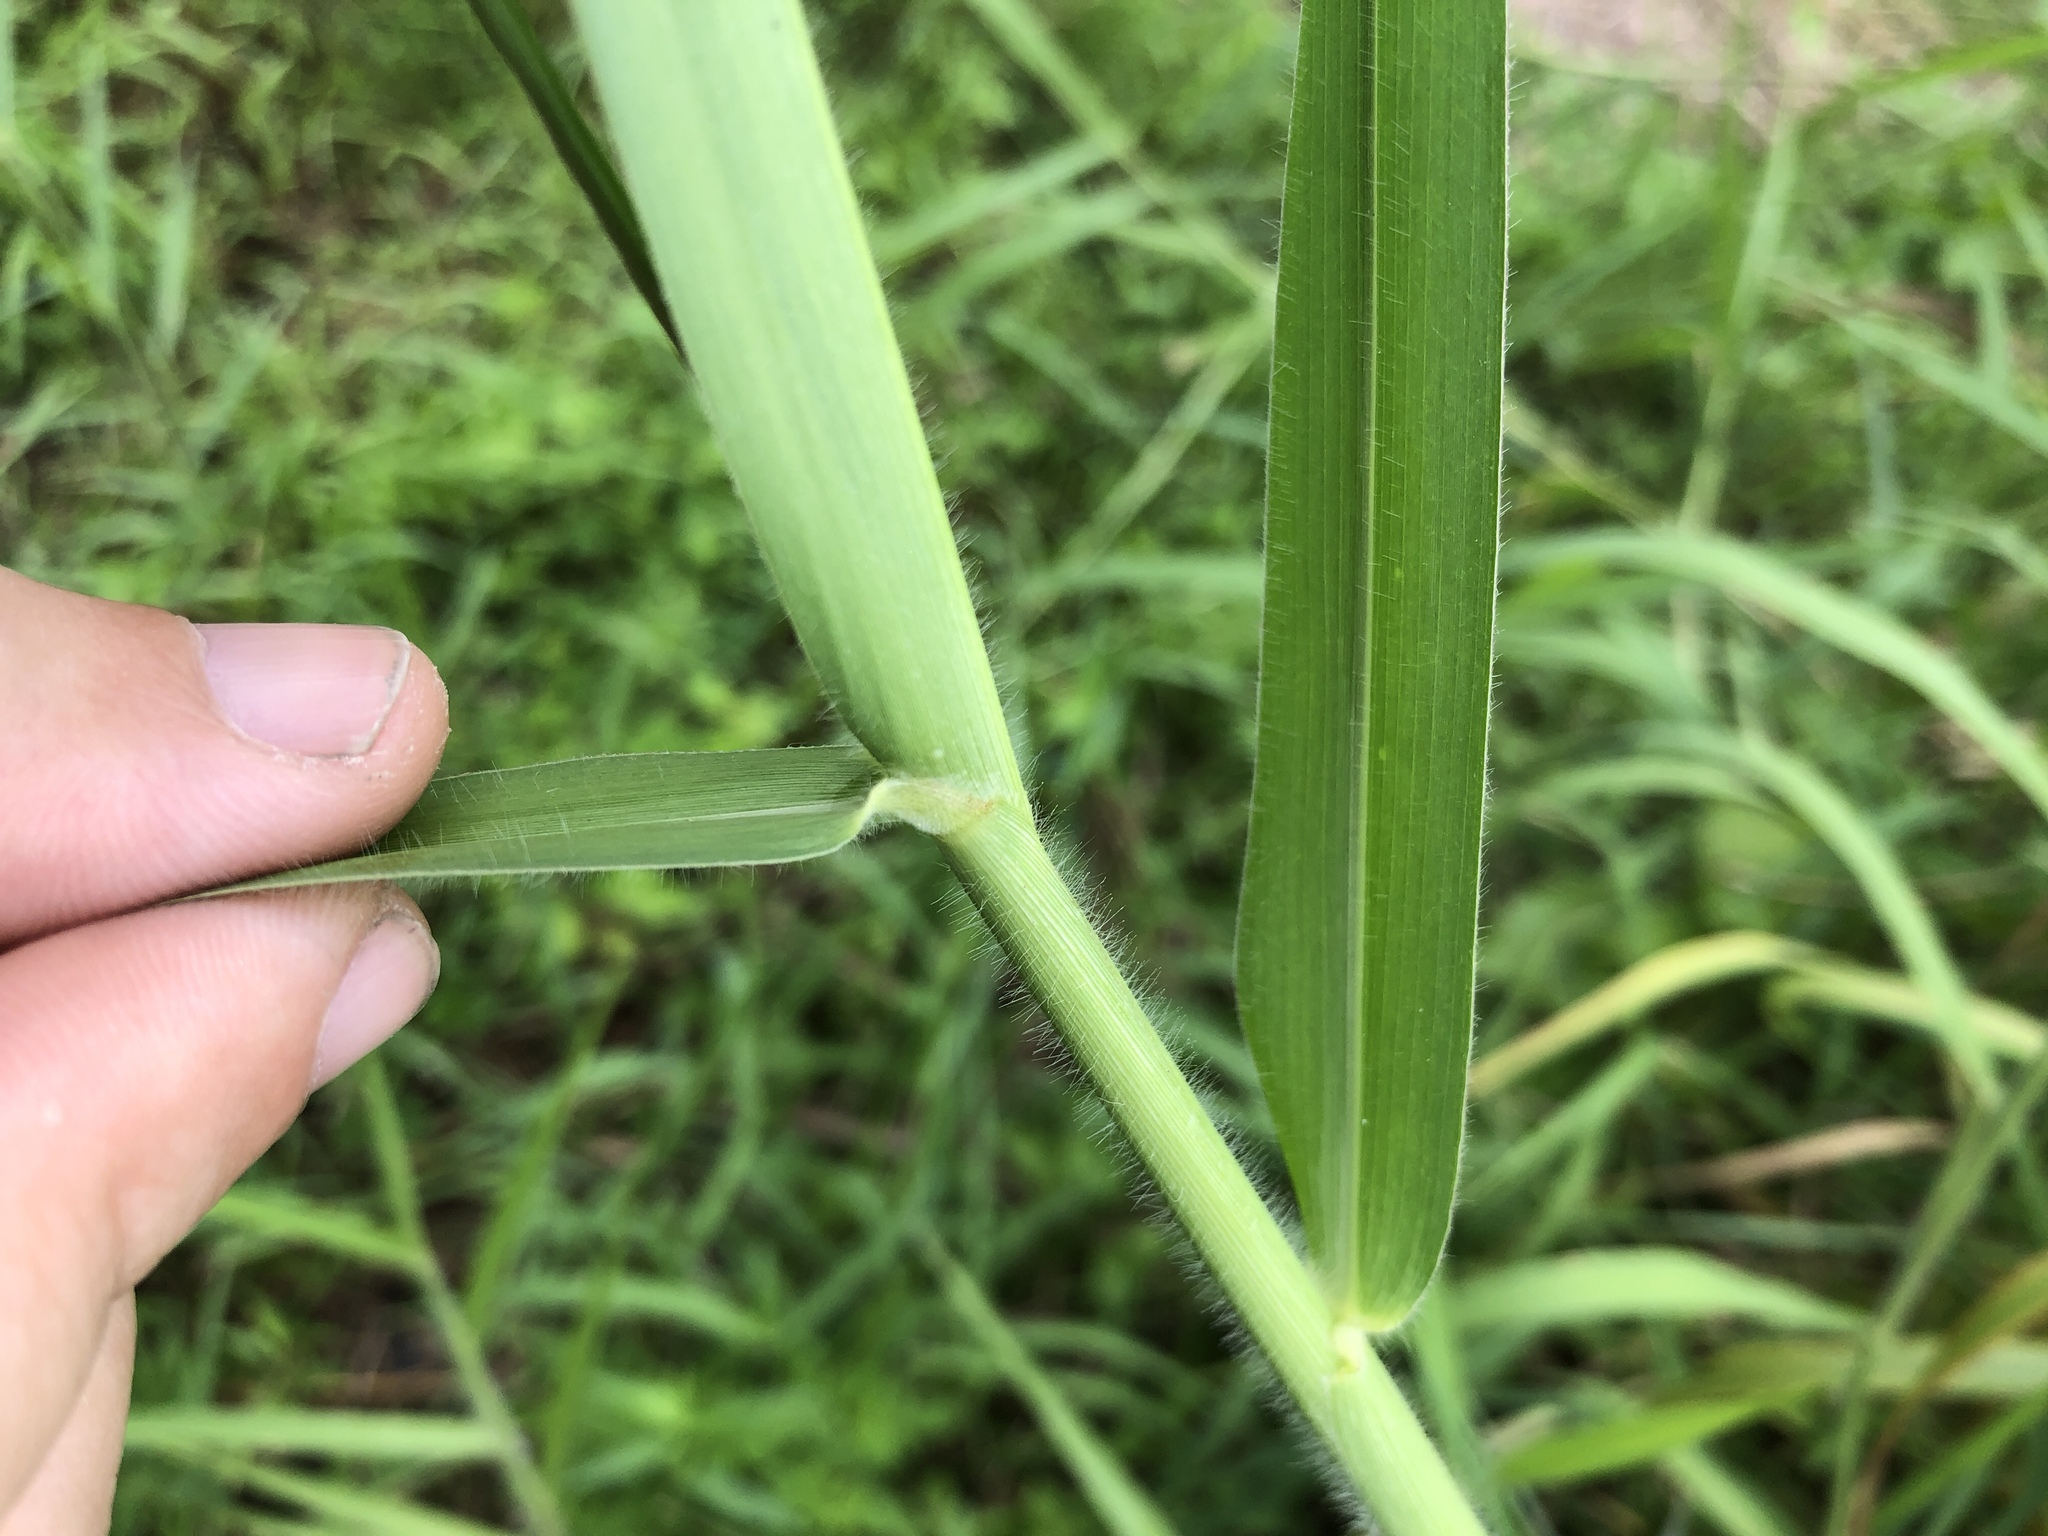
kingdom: Plantae
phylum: Tracheophyta
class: Liliopsida
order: Poales
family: Poaceae
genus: Urochloa
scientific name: Urochloa mutica
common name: Para grass
